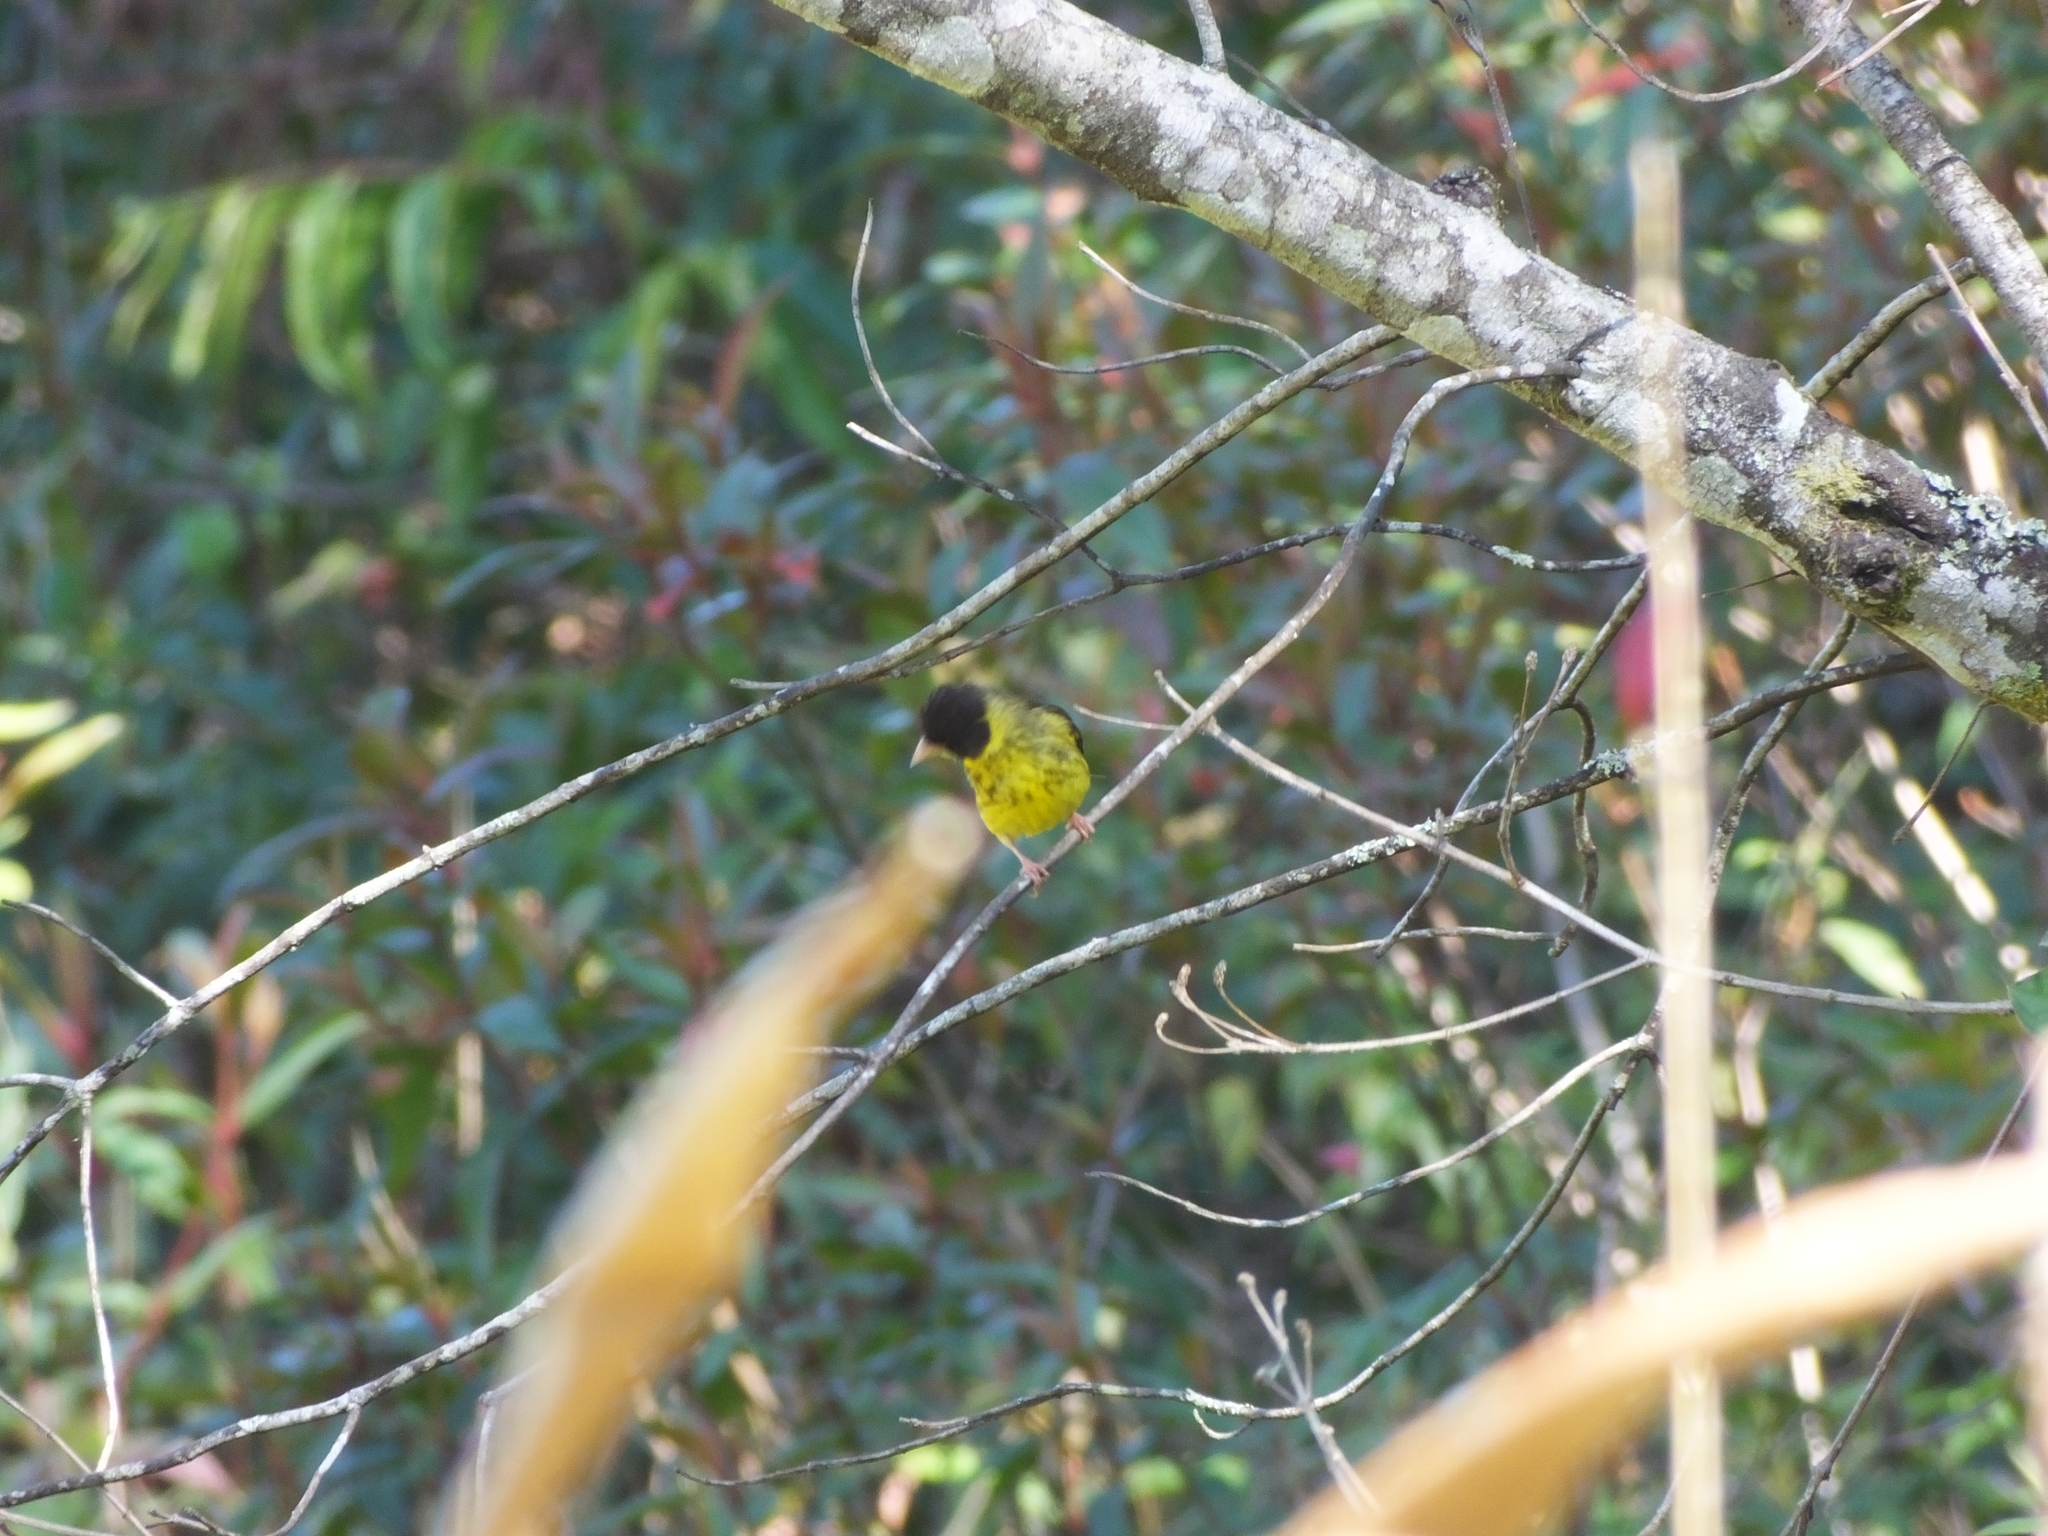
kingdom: Animalia
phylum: Chordata
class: Aves
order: Passeriformes
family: Fringillidae
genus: Chloris
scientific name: Chloris monguilloti
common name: Vietnamese greenfinch
